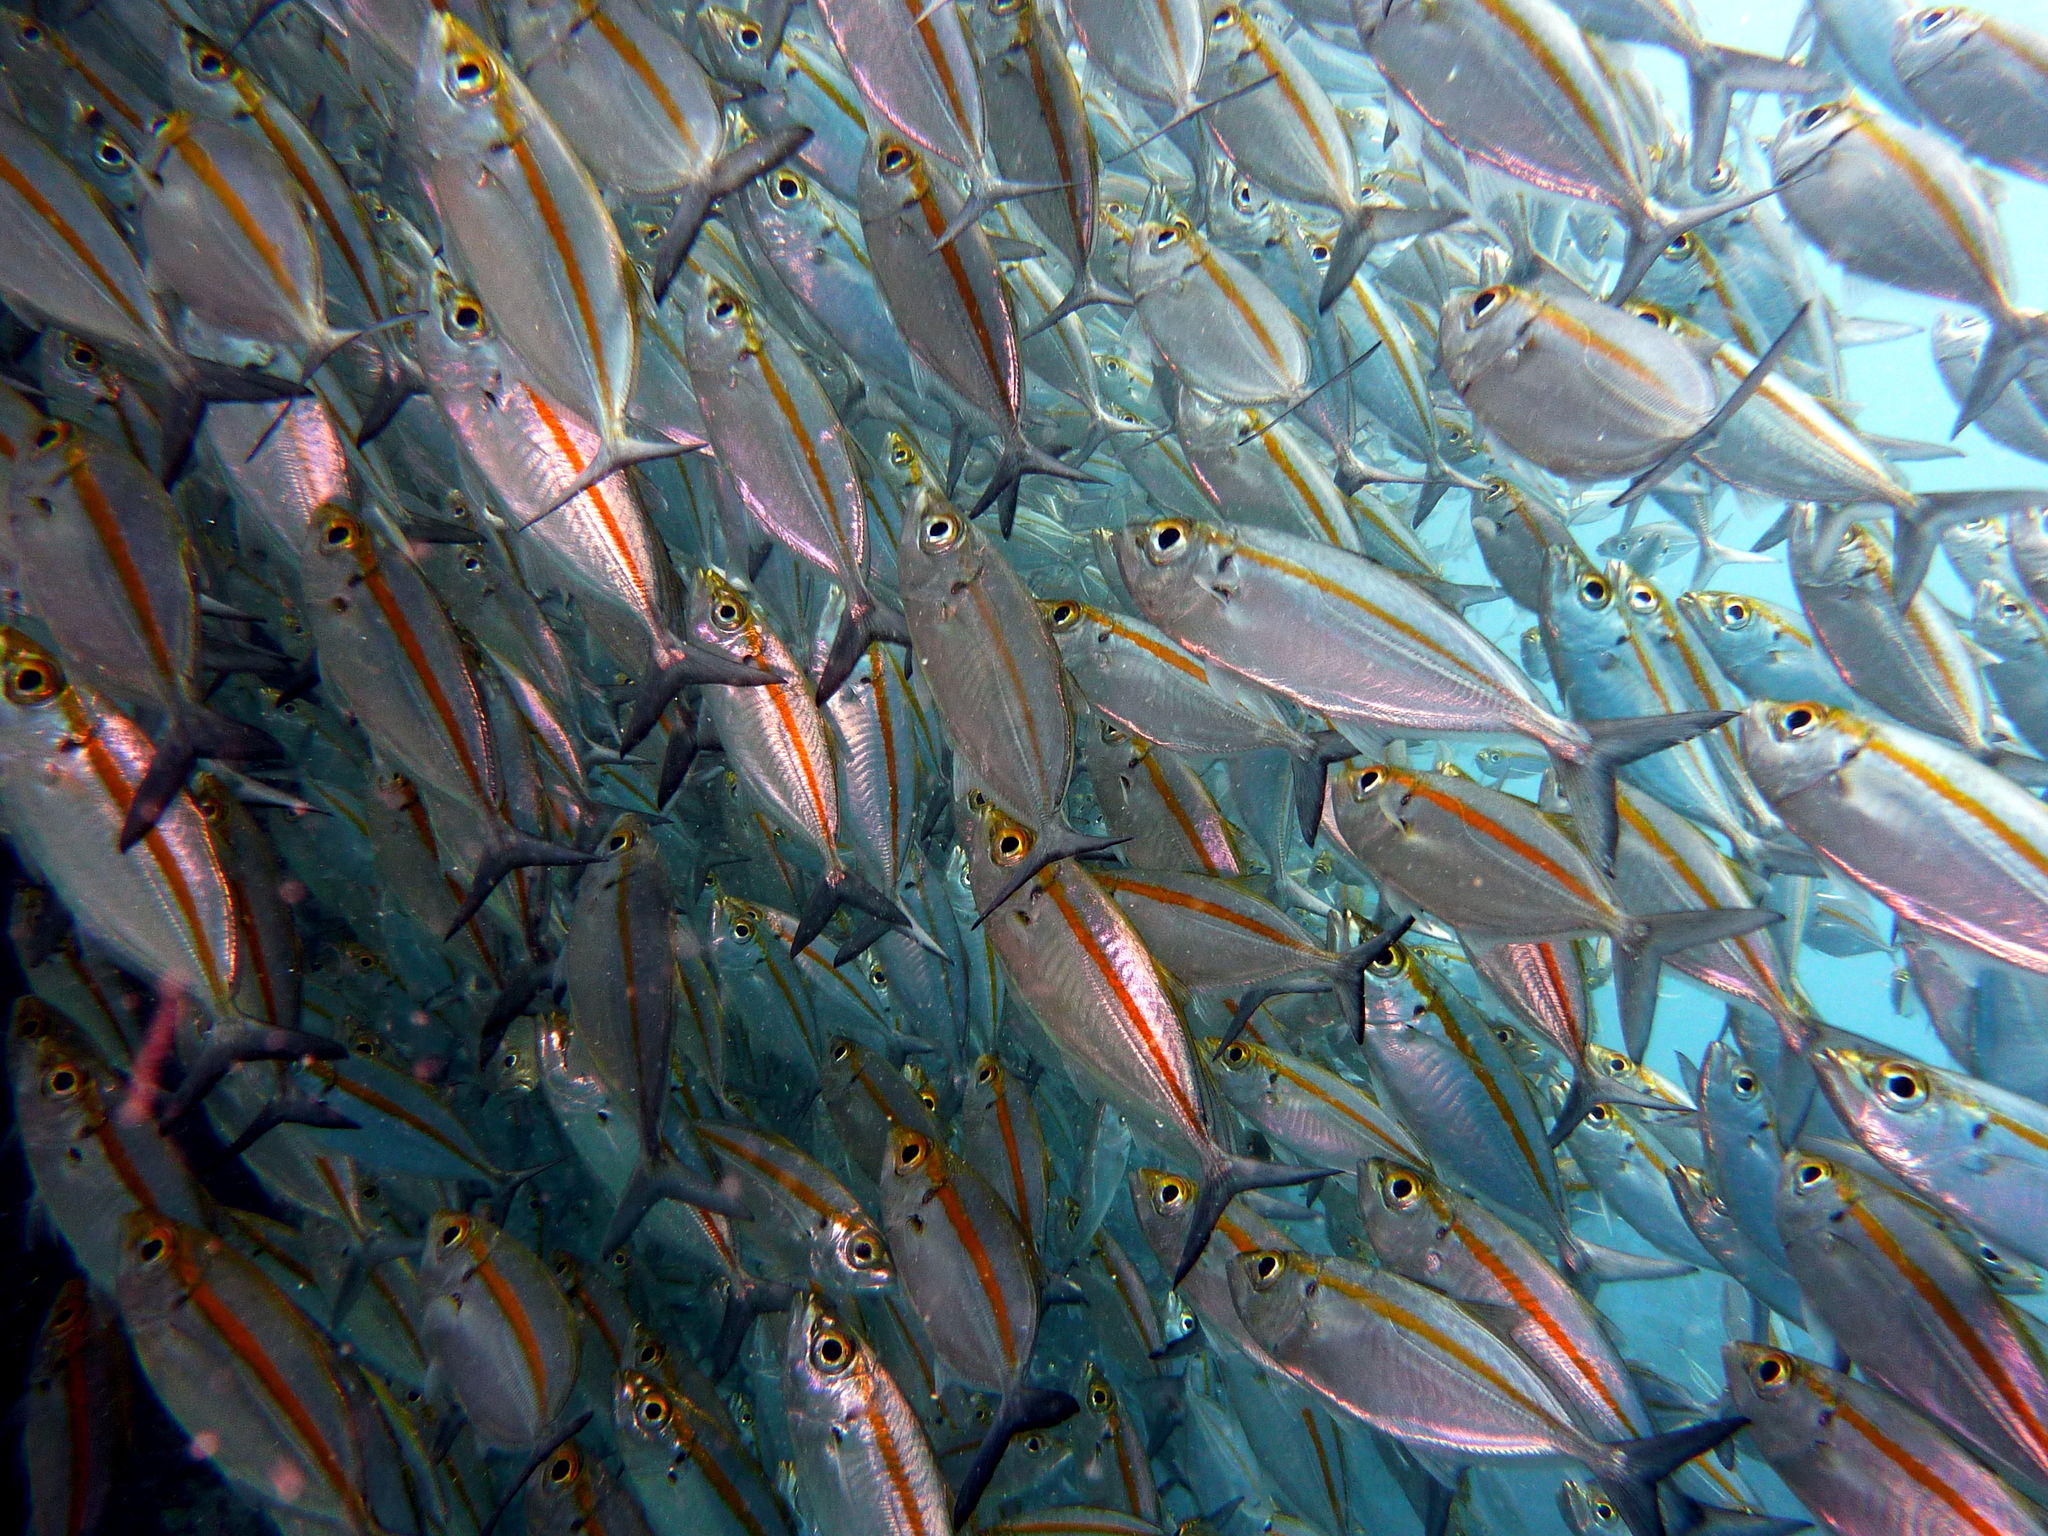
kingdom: Animalia
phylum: Chordata
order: Perciformes
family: Carangidae
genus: Selar
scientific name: Selar boops
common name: Oxeye scad
